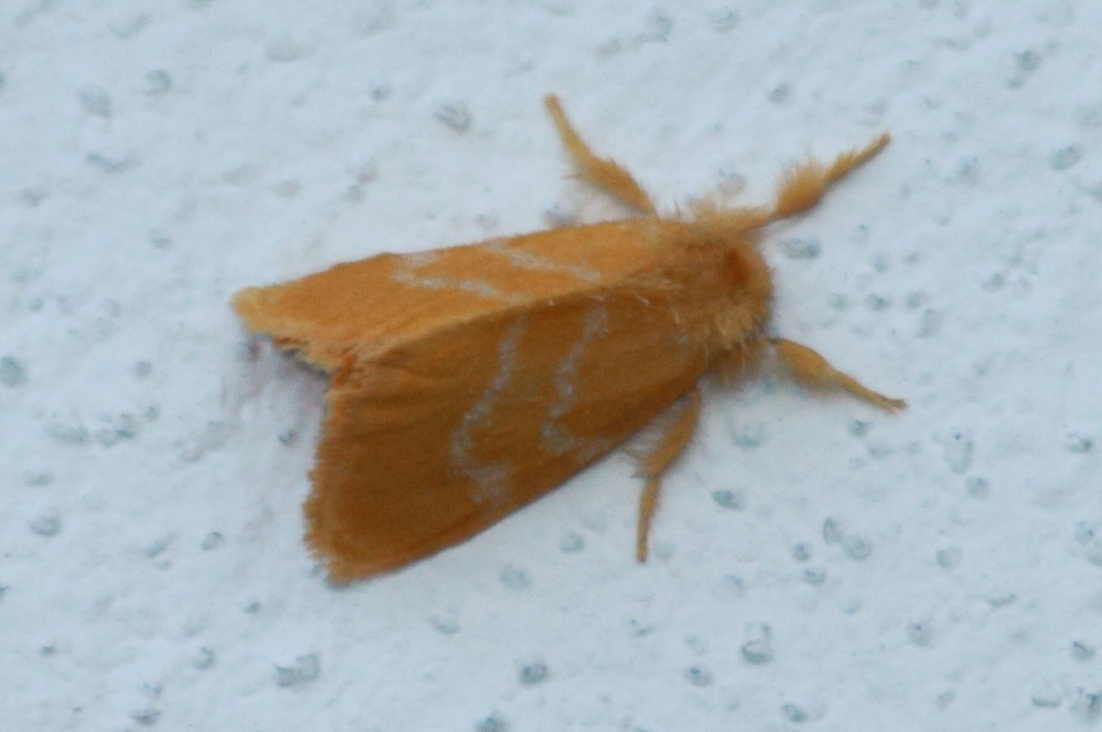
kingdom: Animalia
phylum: Arthropoda
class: Insecta
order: Lepidoptera
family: Erebidae
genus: Euproctis
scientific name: Euproctis lutea
